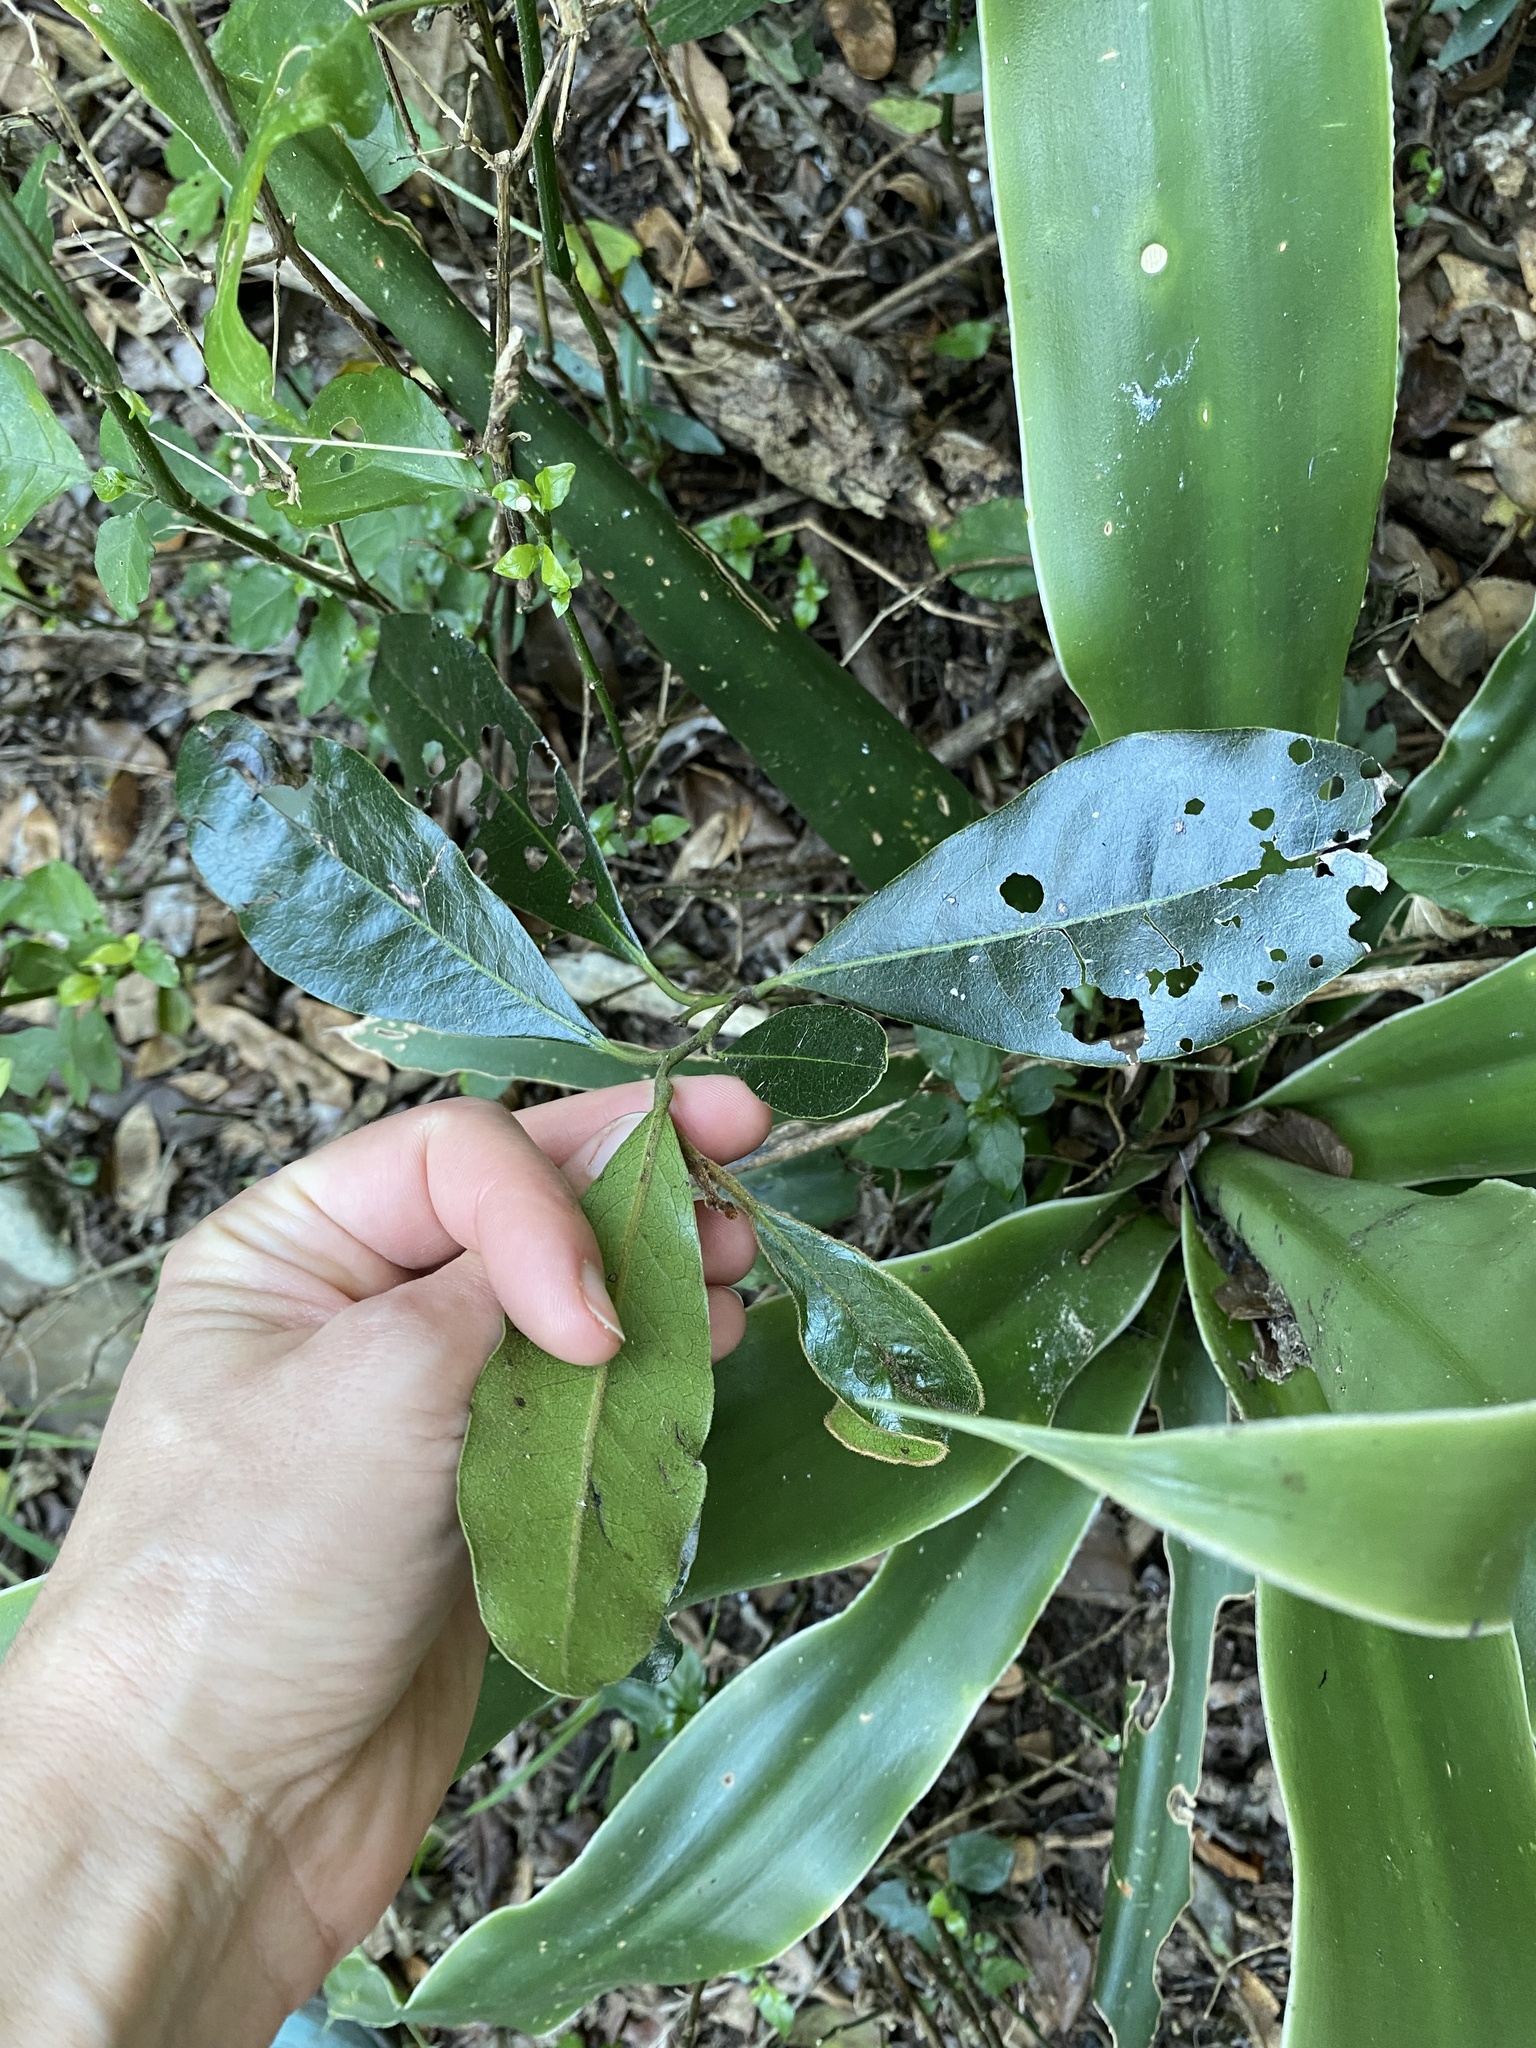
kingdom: Plantae
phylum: Tracheophyta
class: Magnoliopsida
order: Ericales
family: Ebenaceae
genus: Euclea
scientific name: Euclea natalensis
